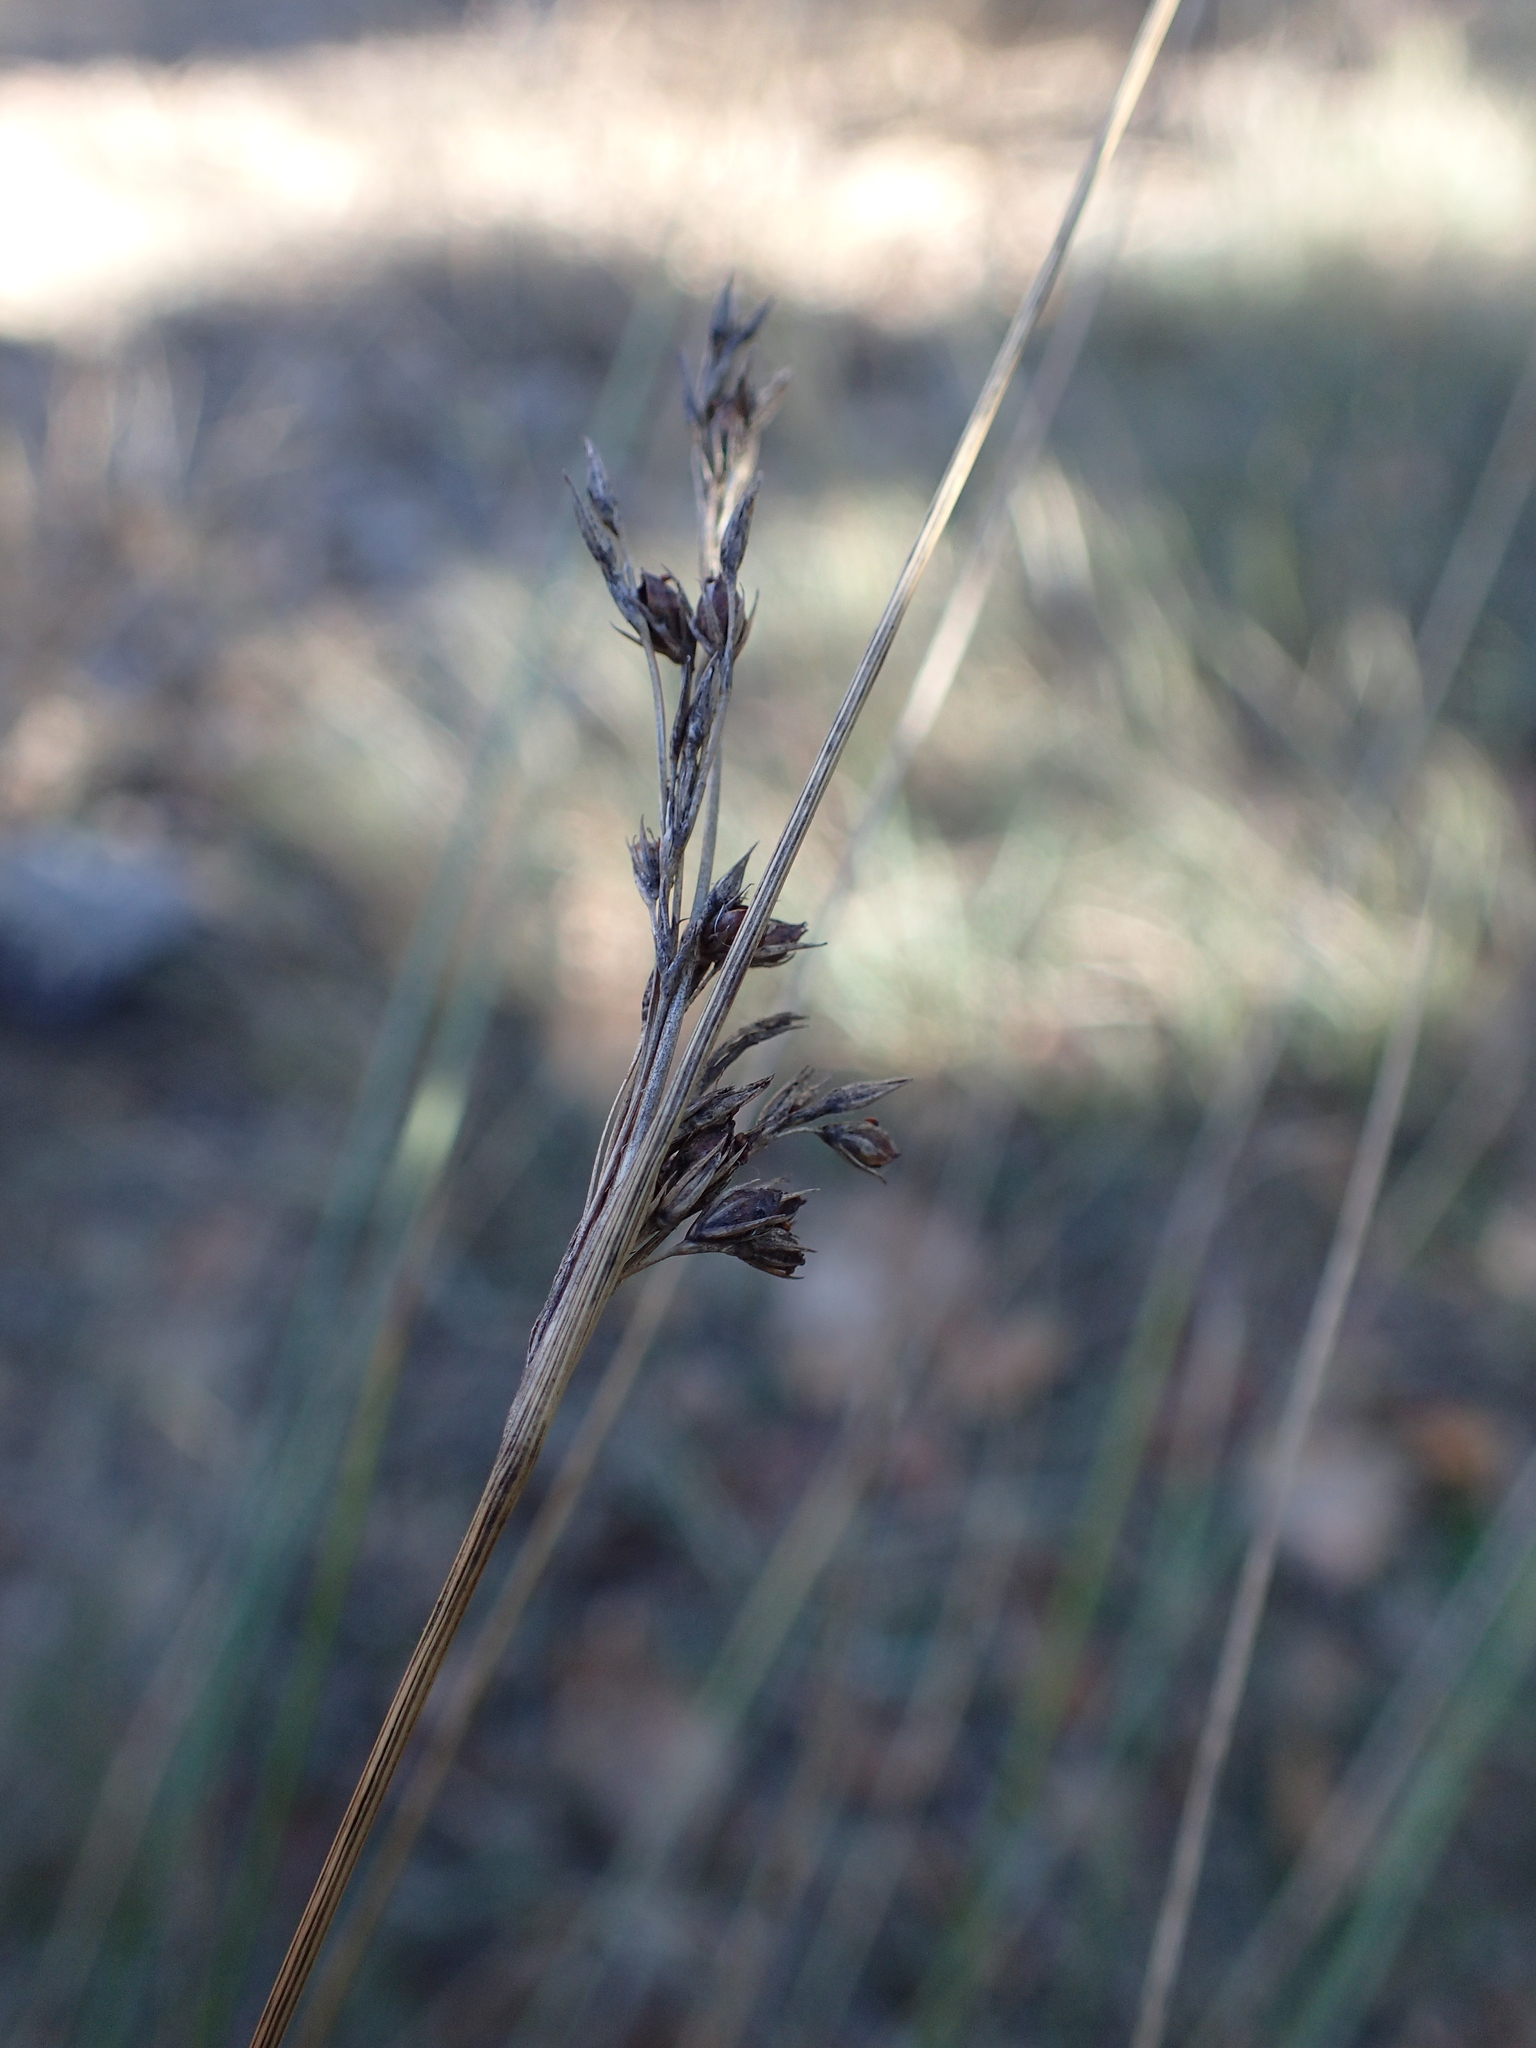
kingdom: Plantae
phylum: Tracheophyta
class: Liliopsida
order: Poales
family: Juncaceae
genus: Juncus
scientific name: Juncus inflexus
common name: Hard rush
